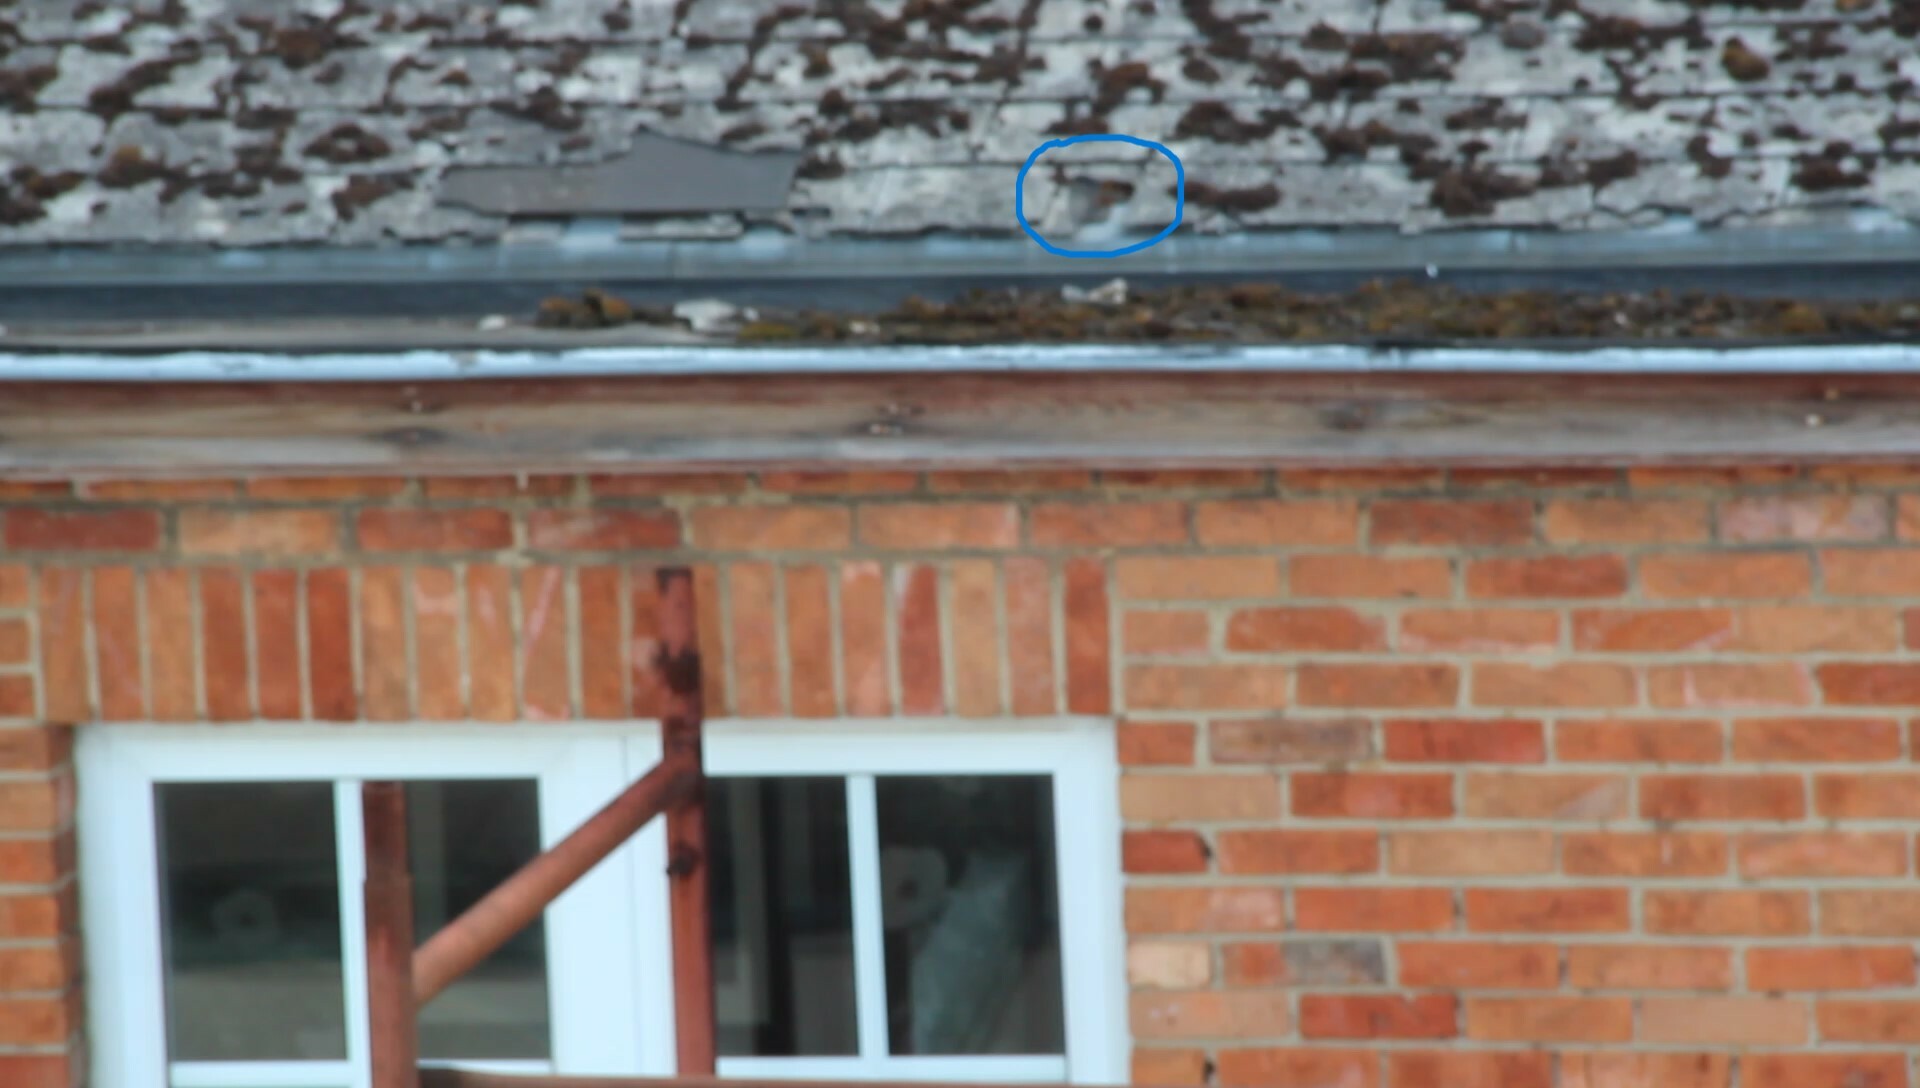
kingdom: Animalia
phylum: Arthropoda
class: Insecta
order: Hymenoptera
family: Vespidae
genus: Vespa
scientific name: Vespa velutina
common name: Asian hornet
